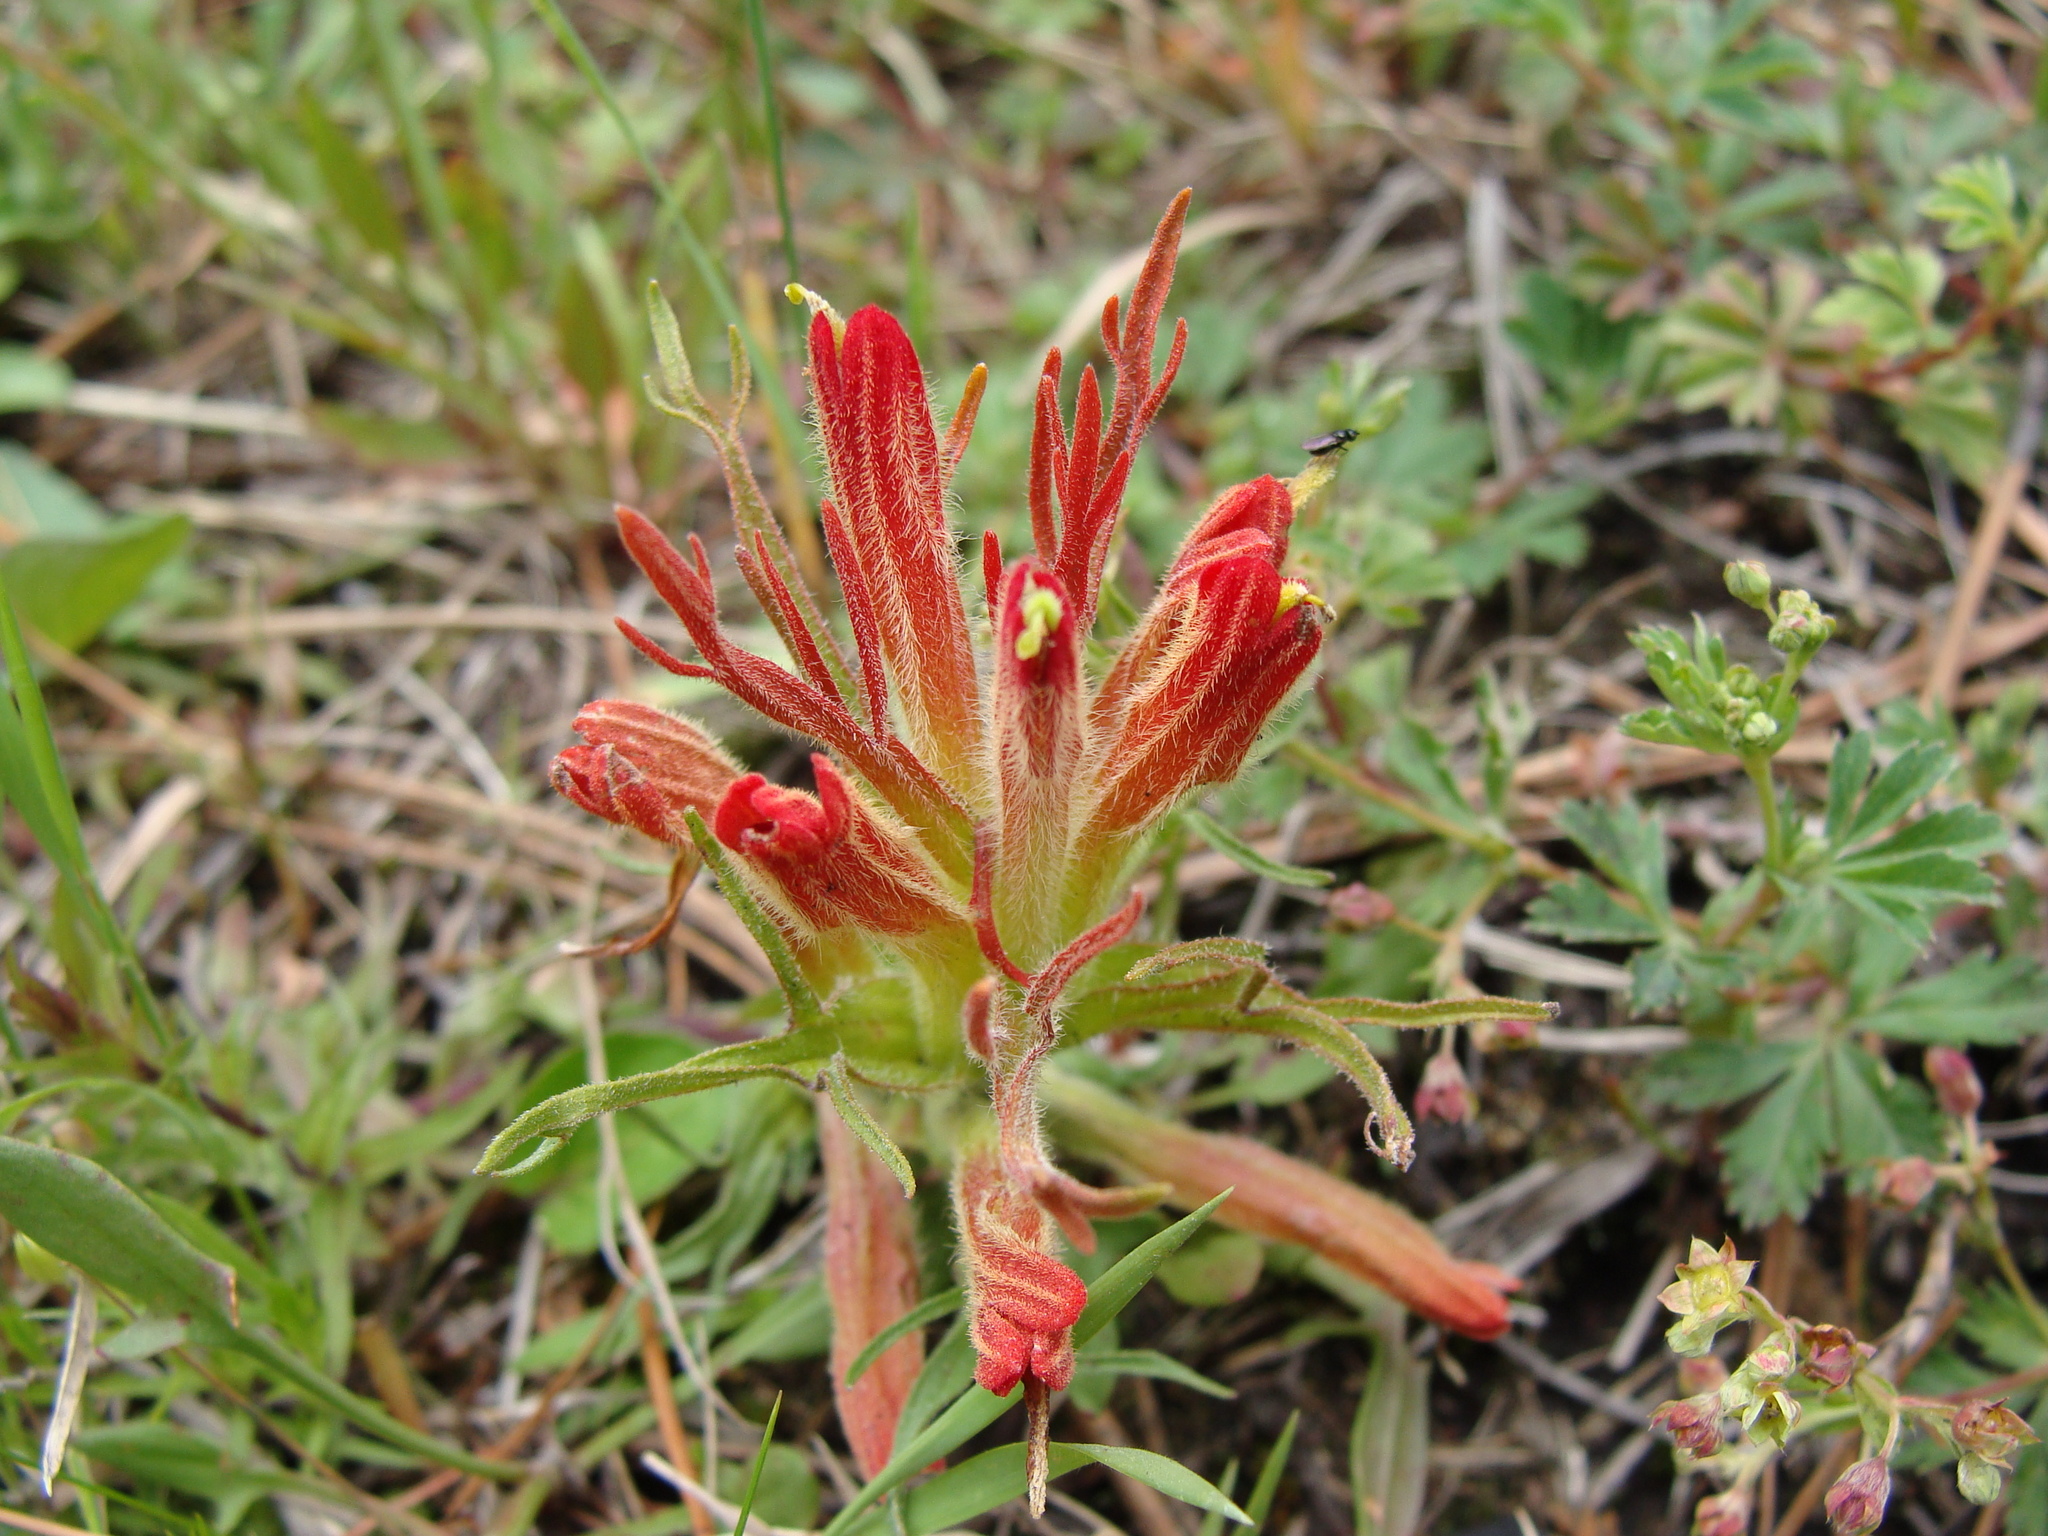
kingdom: Plantae
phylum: Tracheophyta
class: Magnoliopsida
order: Lamiales
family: Orobanchaceae
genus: Castilleja
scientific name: Castilleja moranensis
